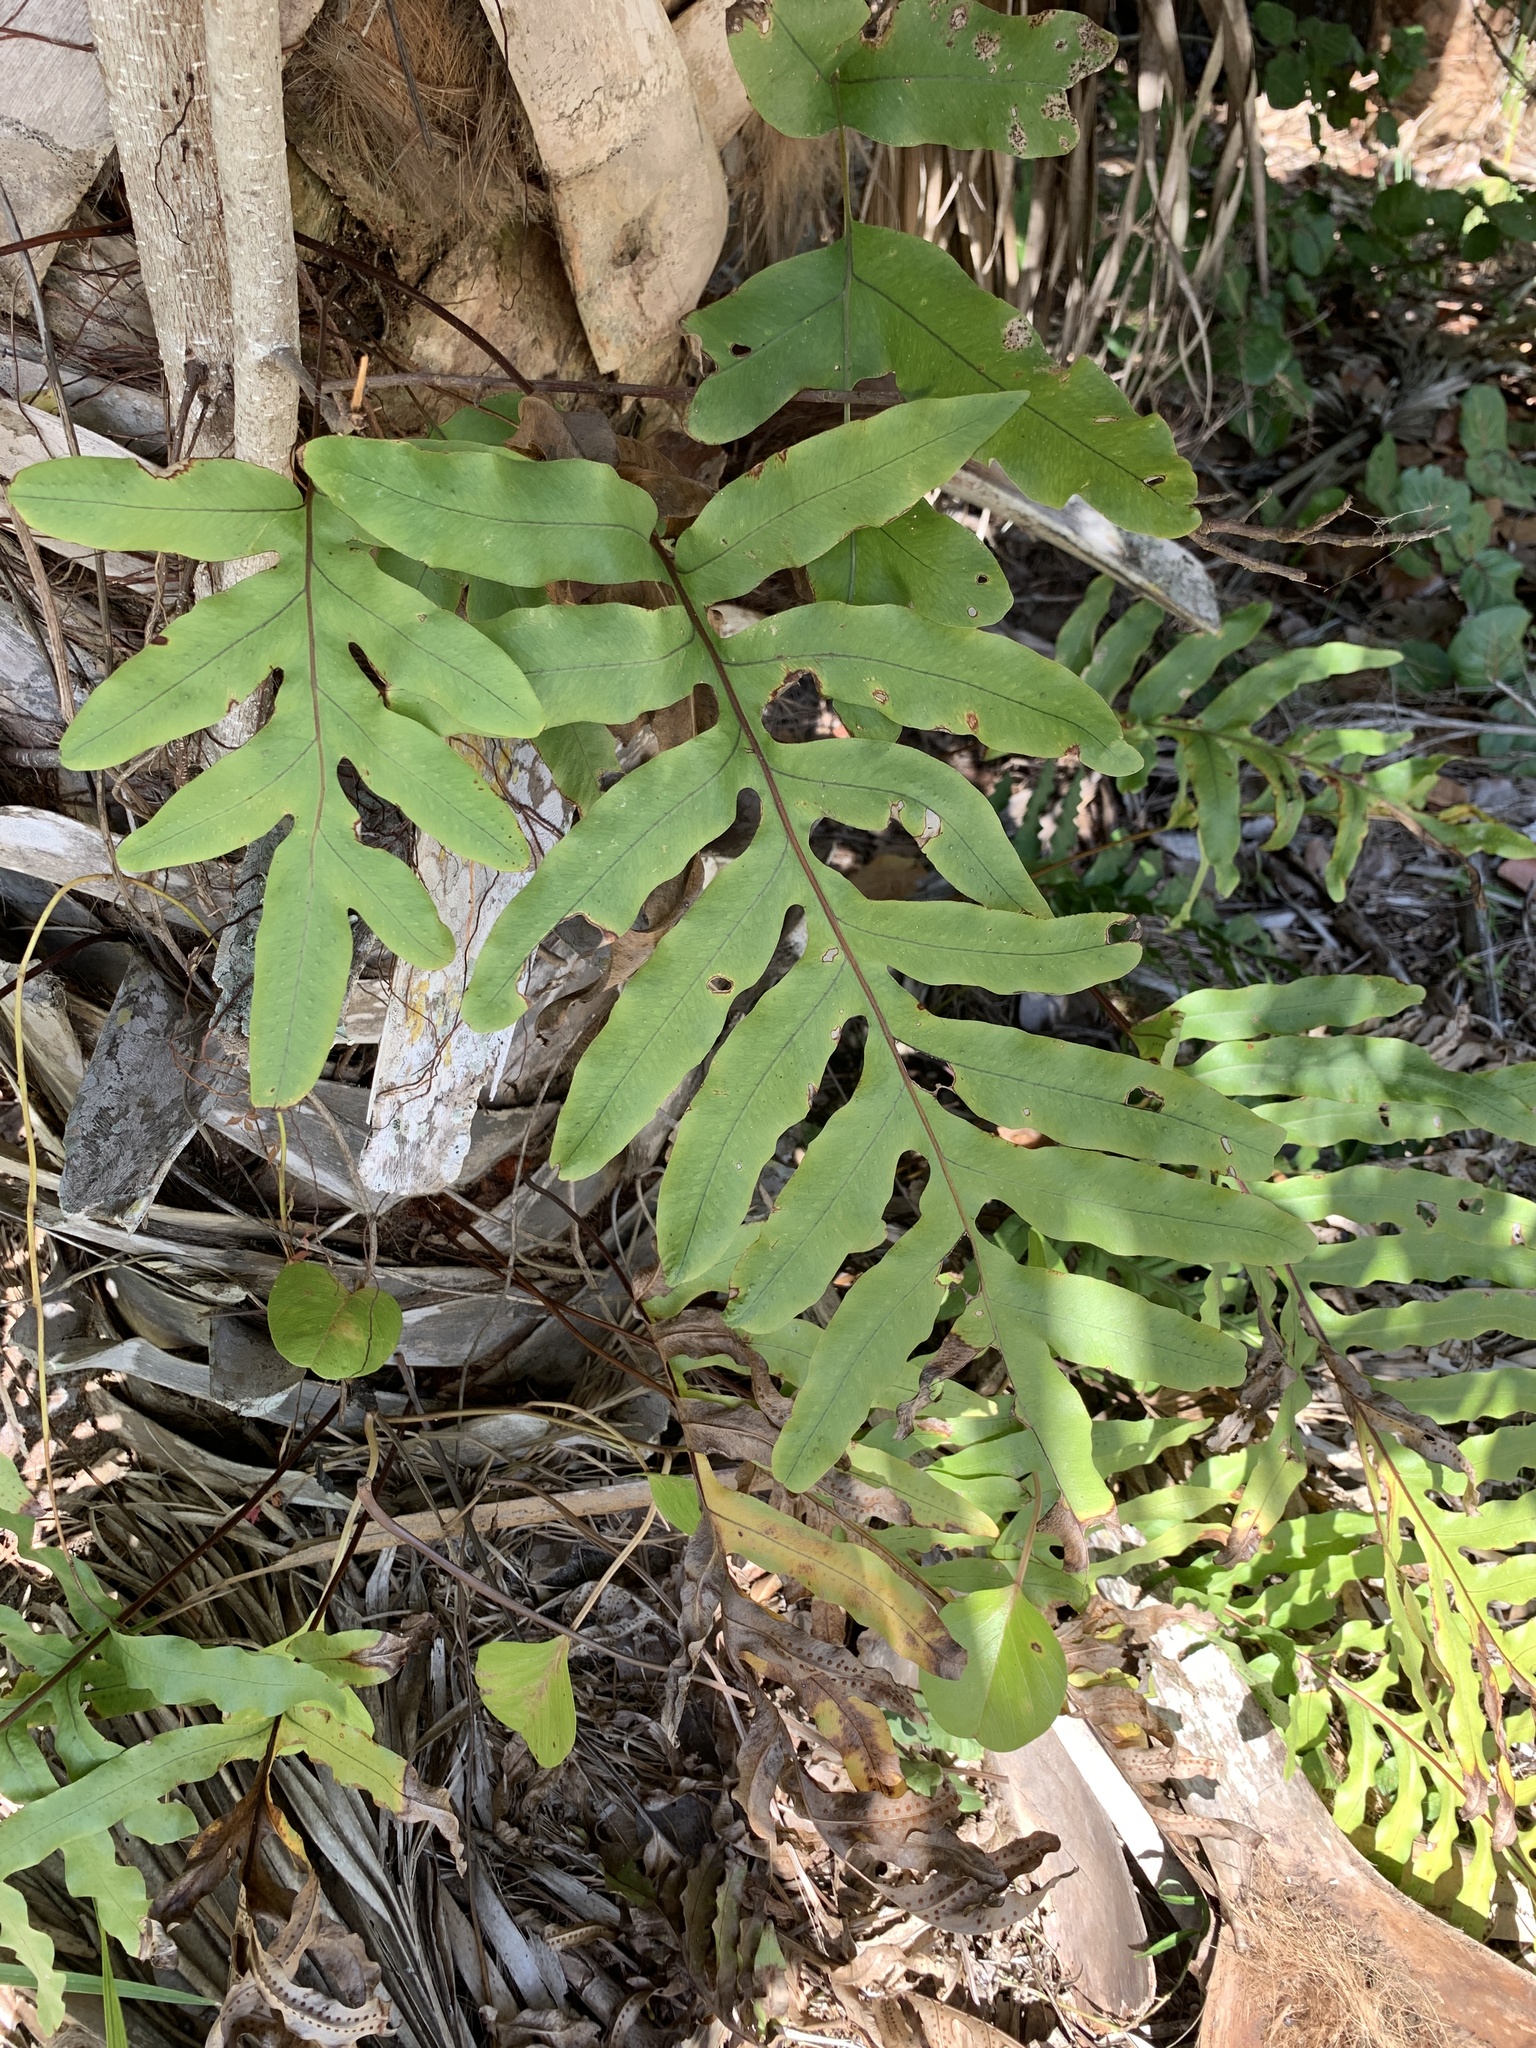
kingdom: Plantae
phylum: Tracheophyta
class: Polypodiopsida
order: Polypodiales
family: Polypodiaceae
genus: Phlebodium
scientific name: Phlebodium aureum
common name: Gold-foot fern
